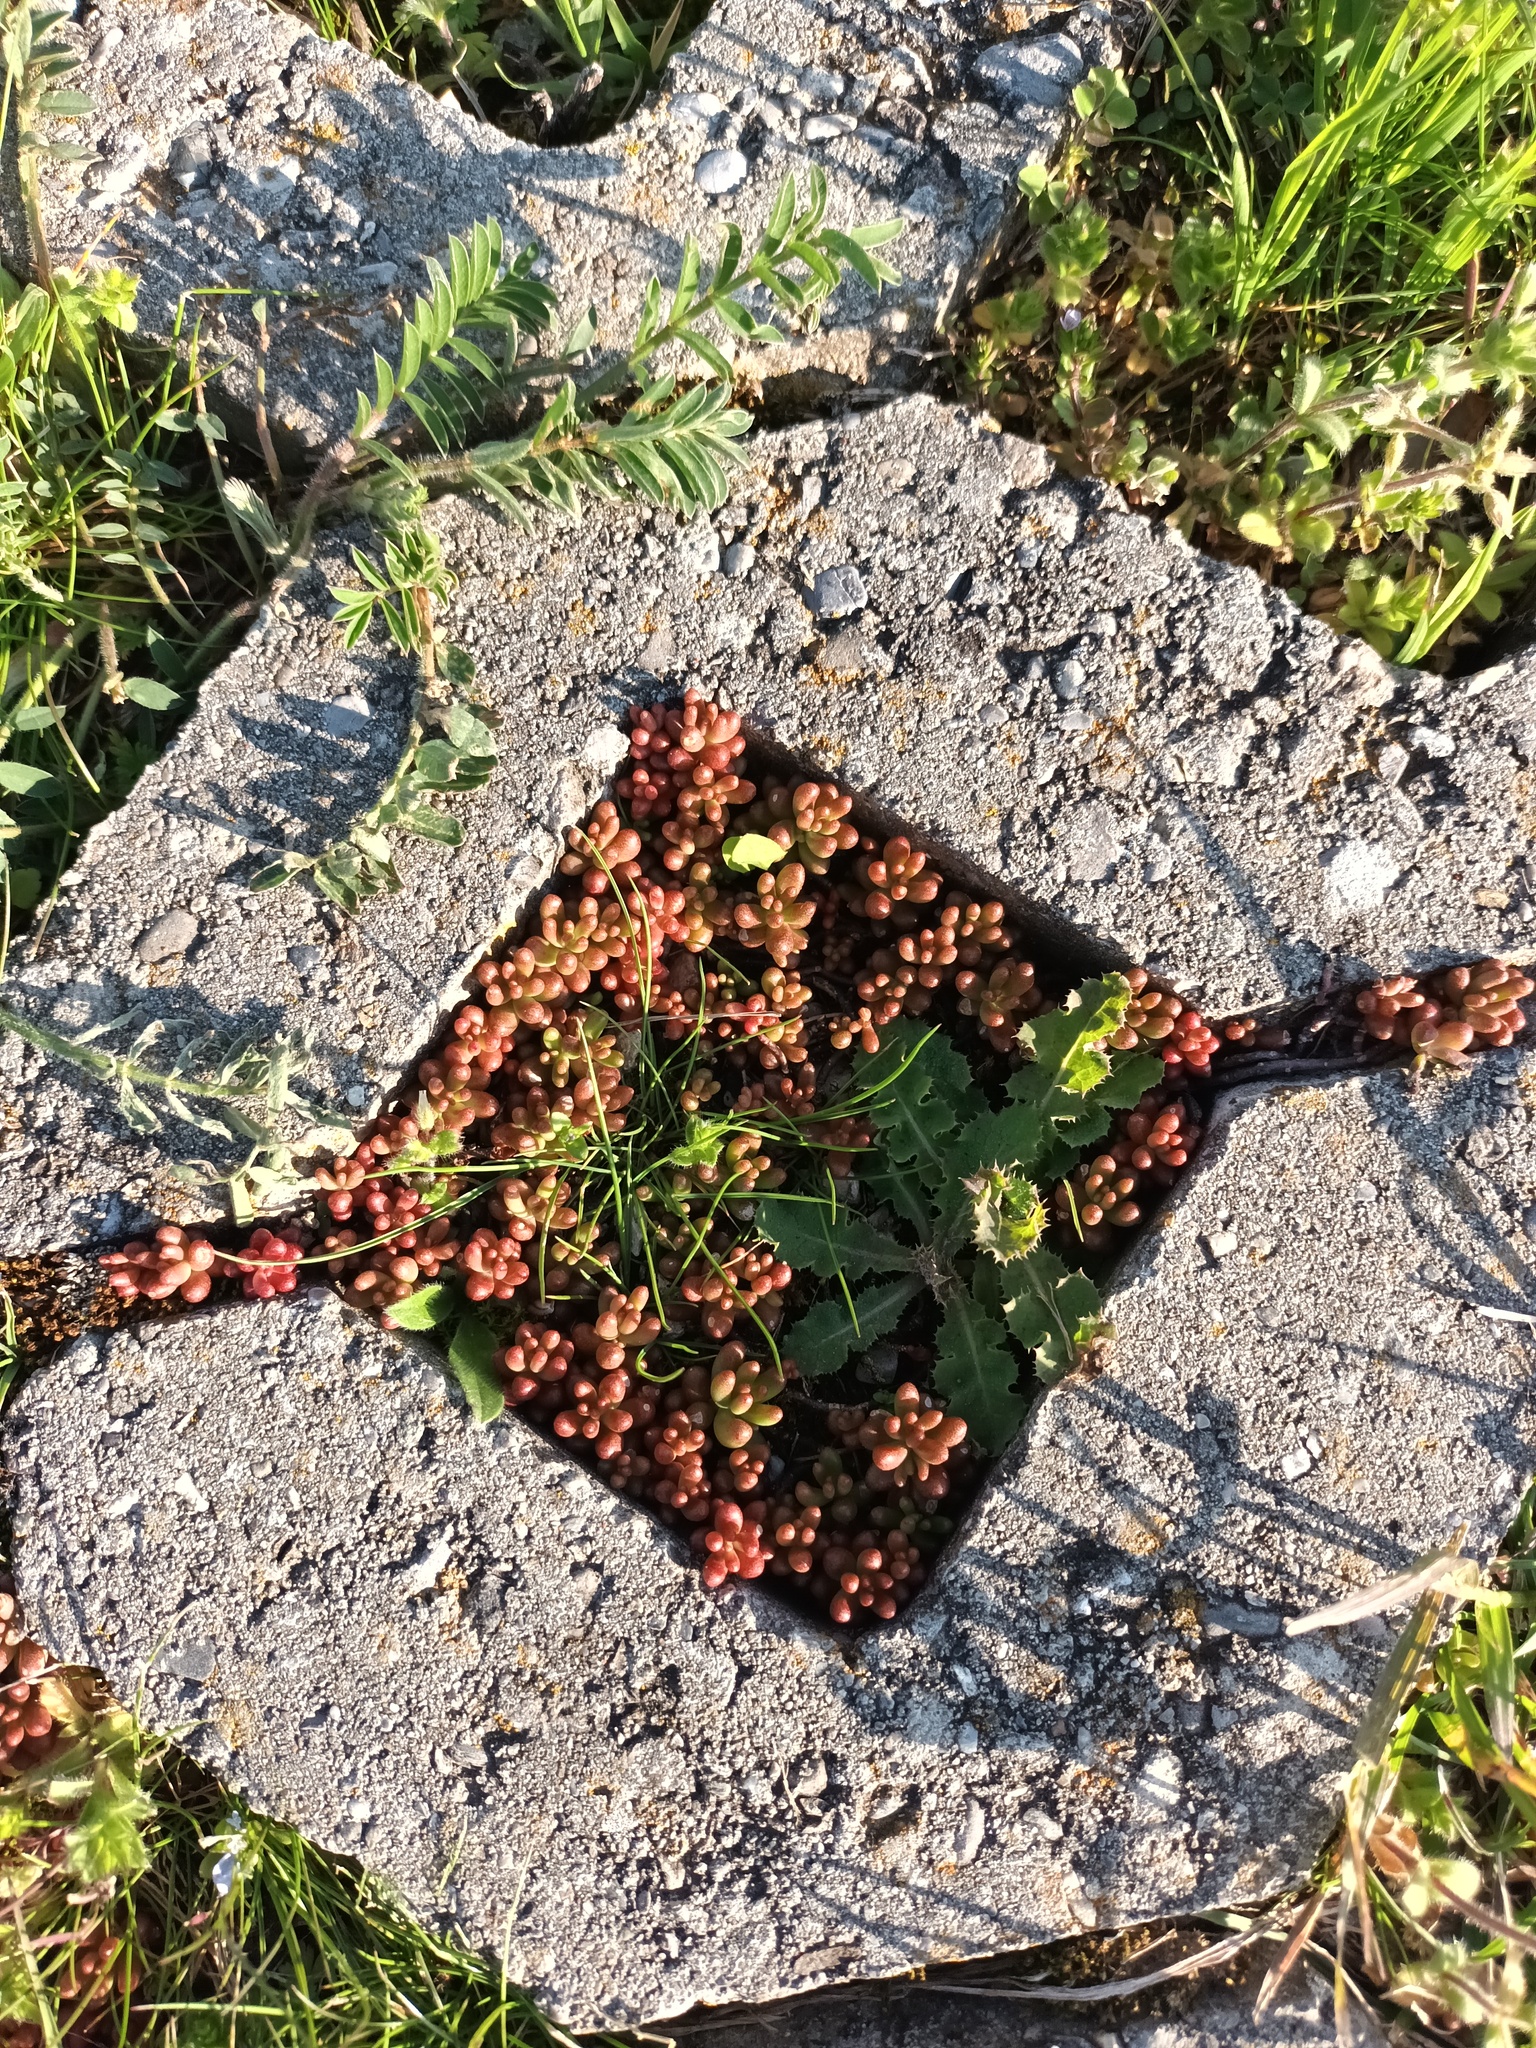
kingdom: Plantae
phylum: Tracheophyta
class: Magnoliopsida
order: Saxifragales
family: Crassulaceae
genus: Sedum
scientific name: Sedum album
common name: White stonecrop
